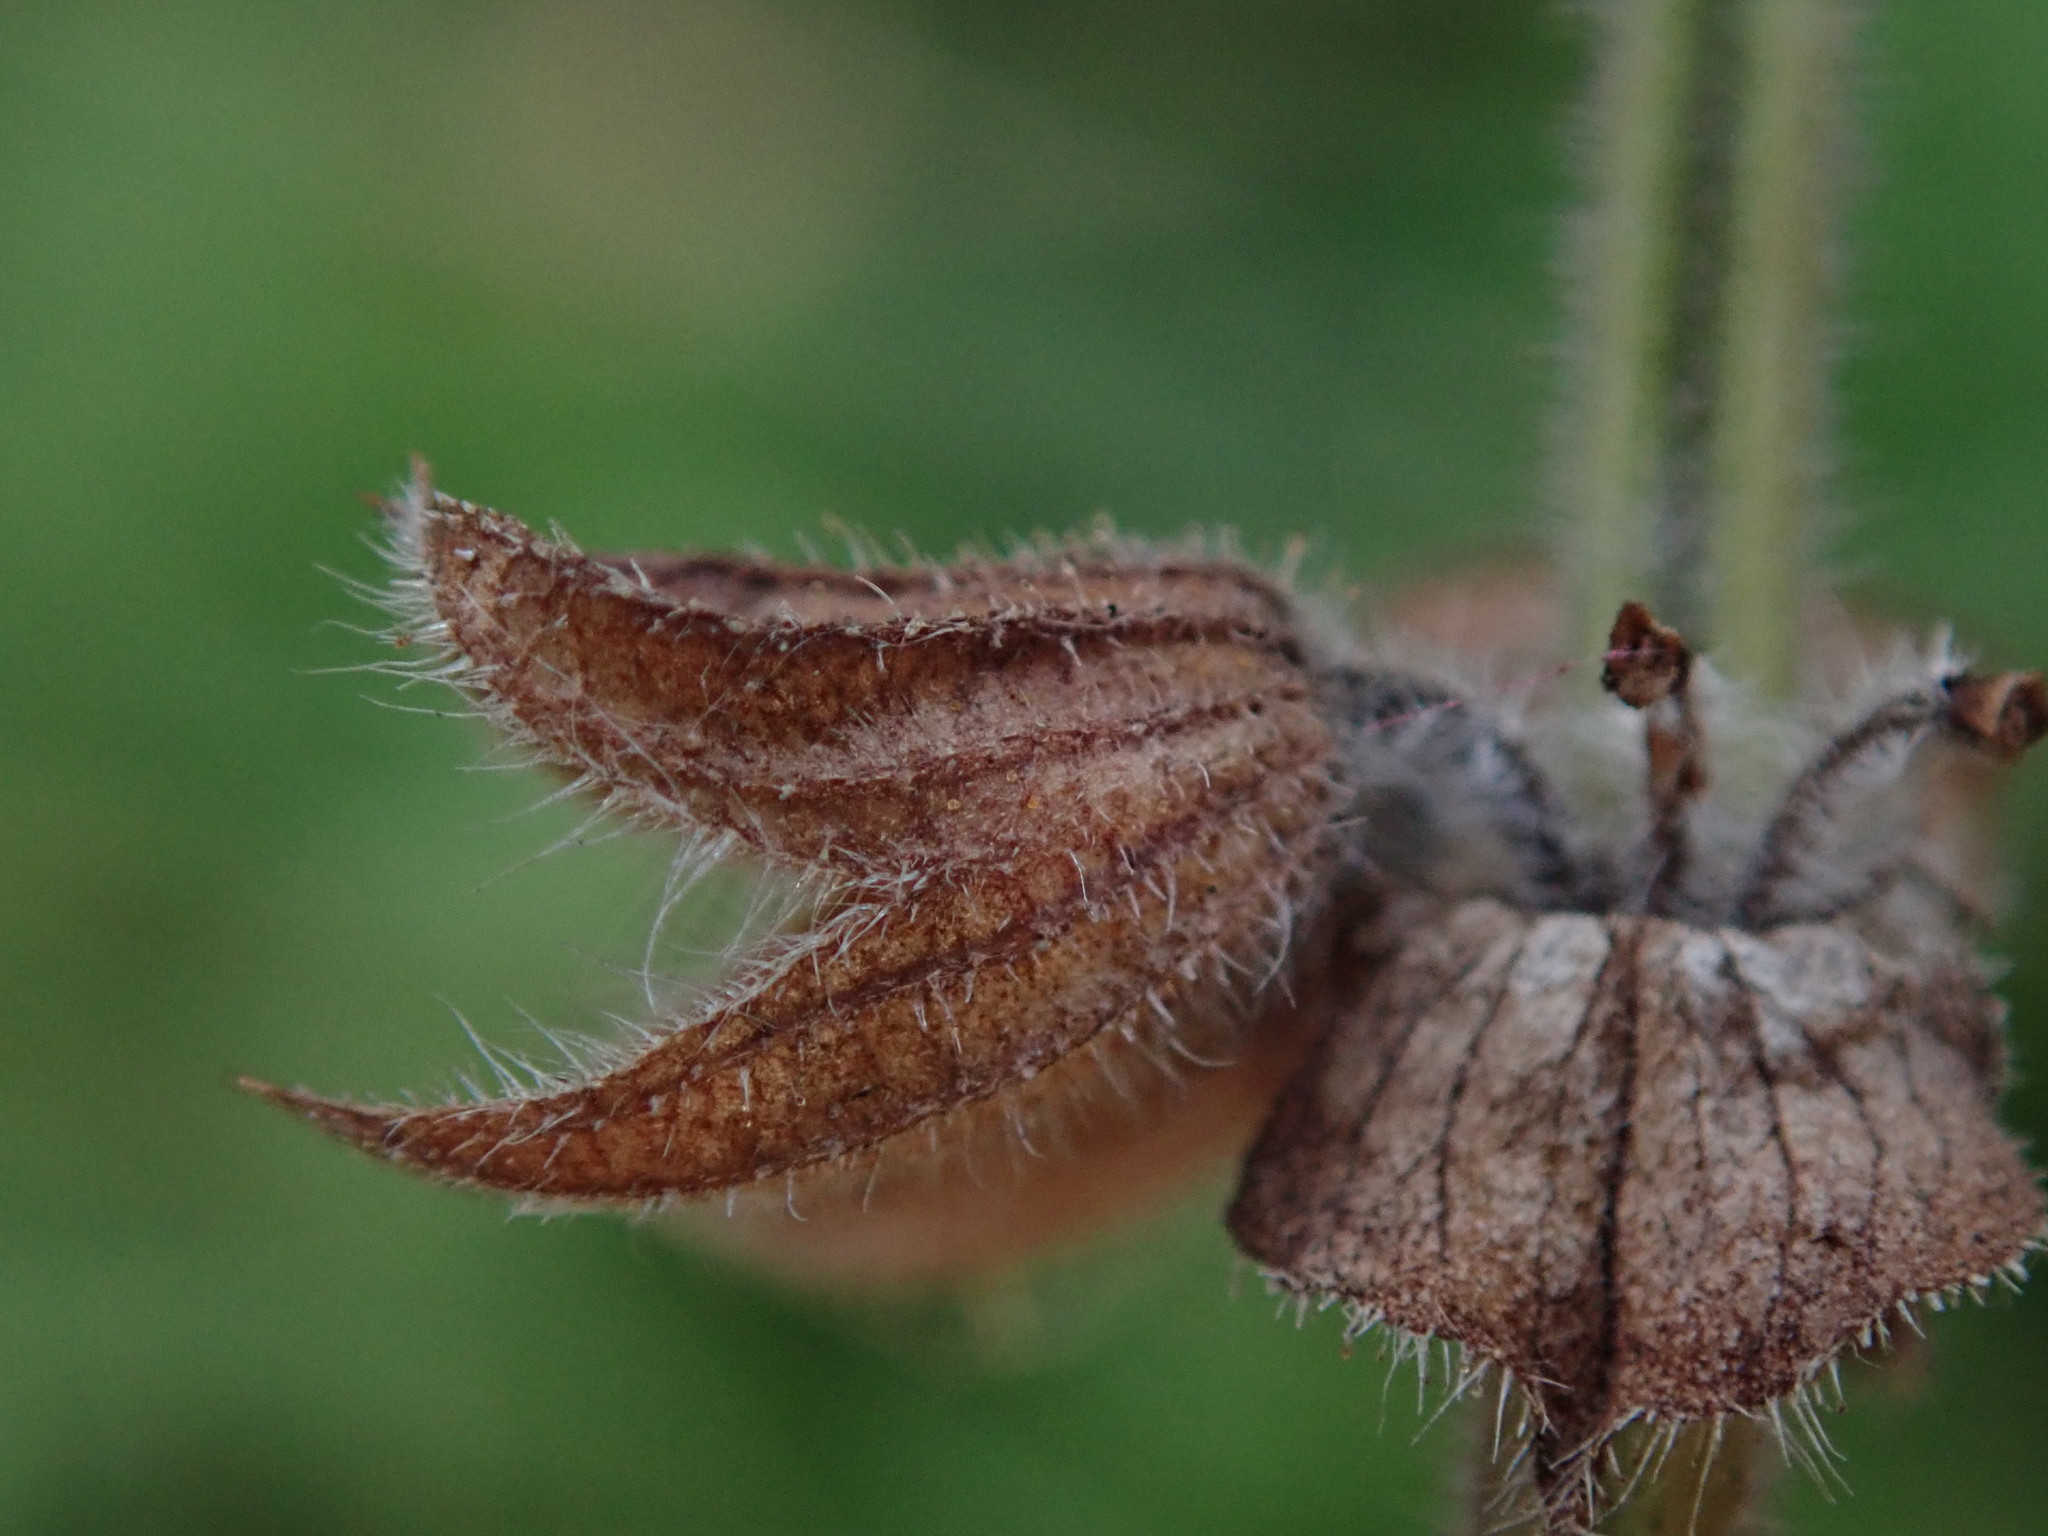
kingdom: Plantae
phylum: Tracheophyta
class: Magnoliopsida
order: Lamiales
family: Lamiaceae
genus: Salvia
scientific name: Salvia verbenaca
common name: Wild clary
